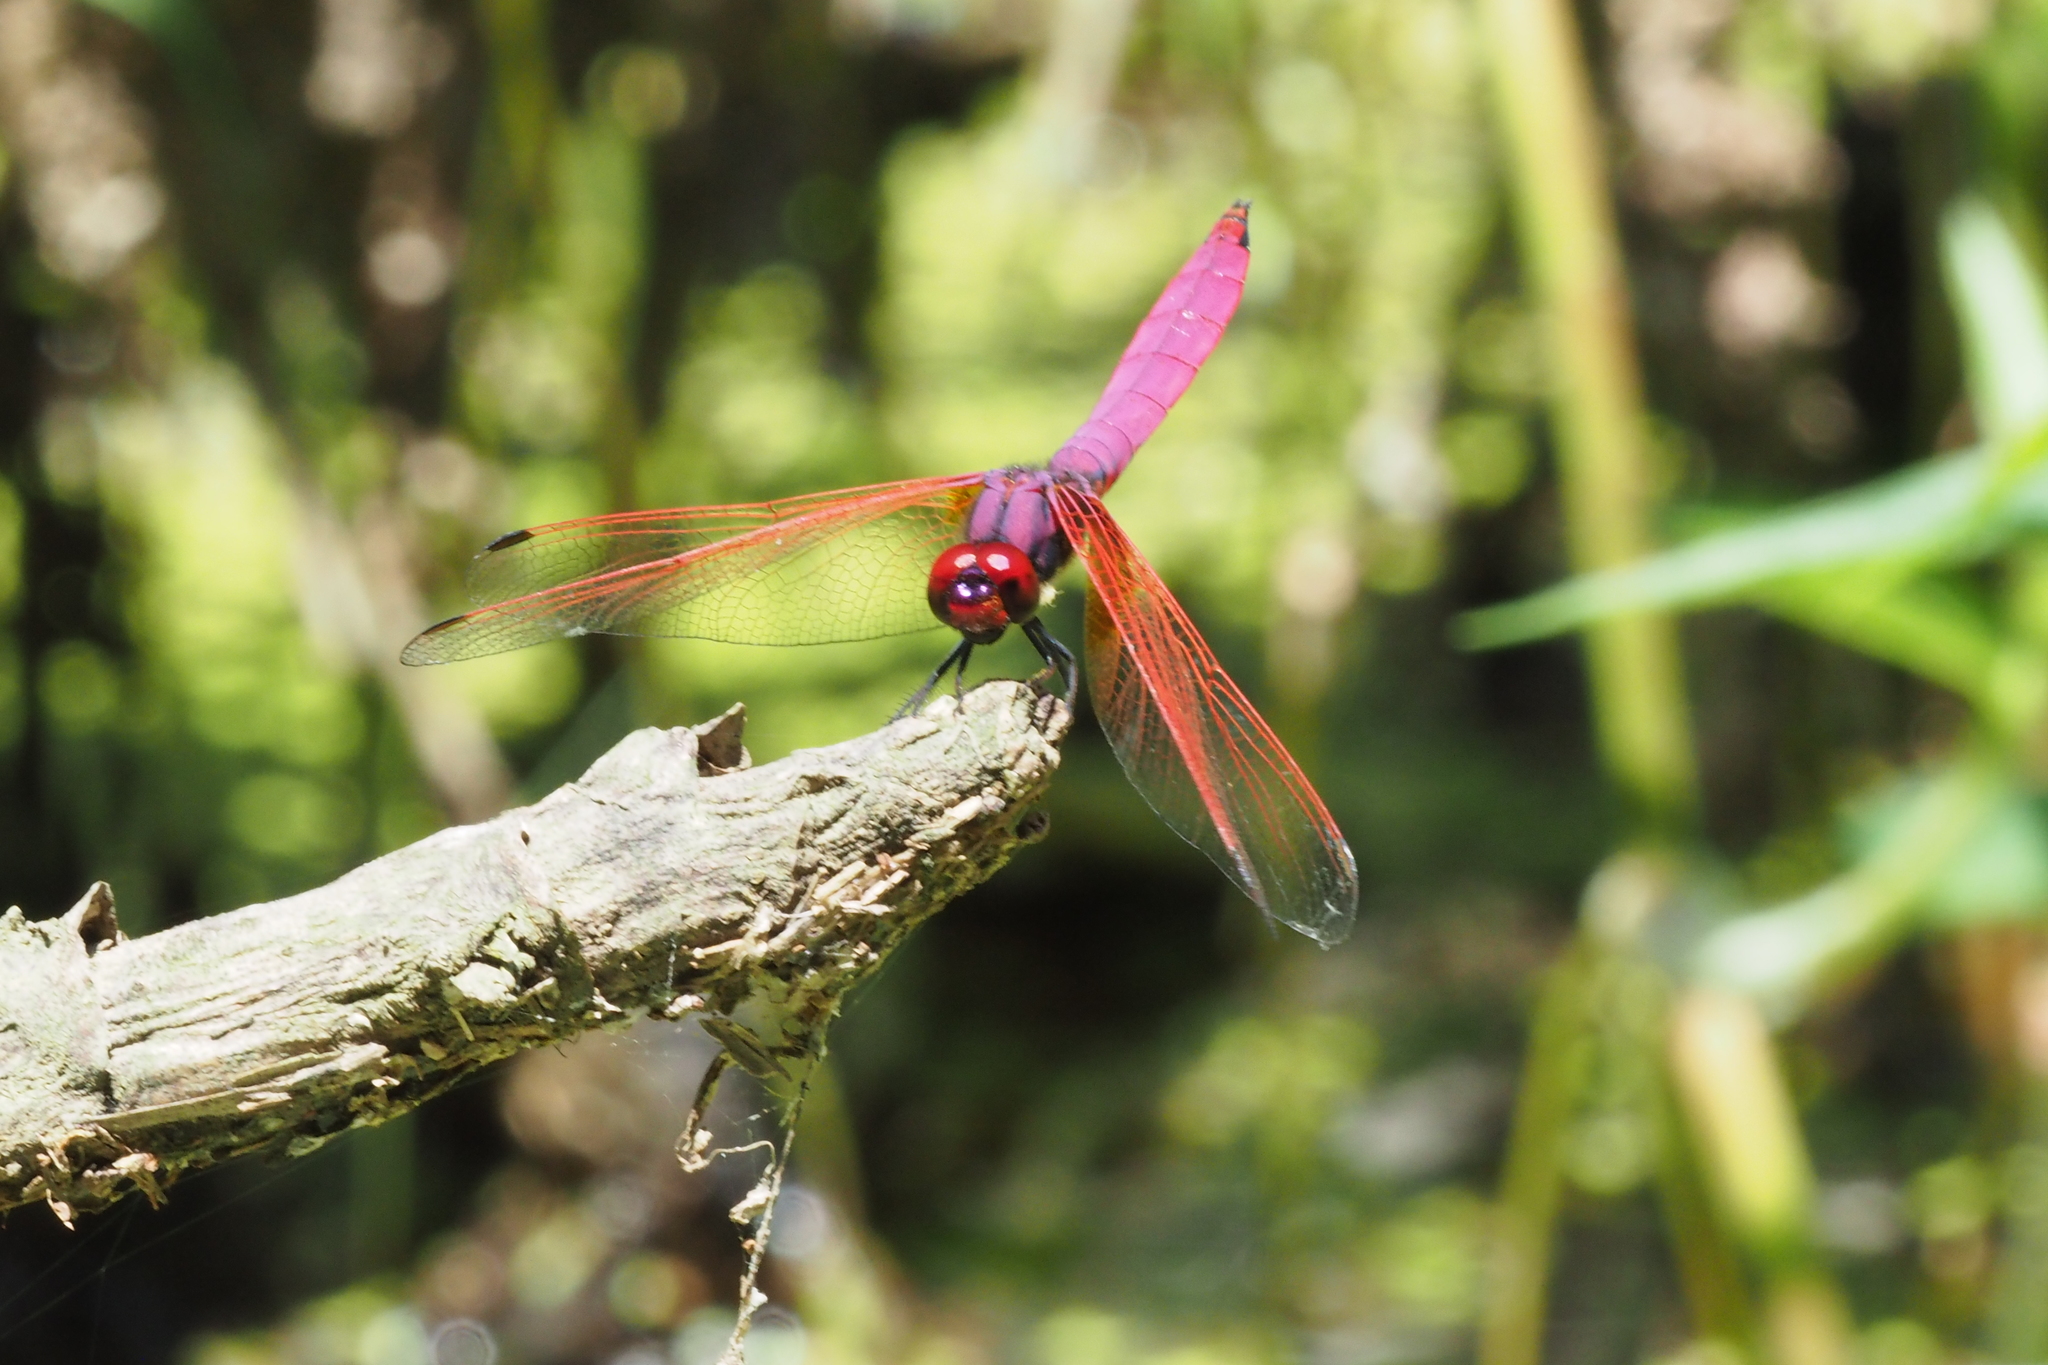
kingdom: Animalia
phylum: Arthropoda
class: Insecta
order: Odonata
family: Libellulidae
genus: Trithemis
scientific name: Trithemis aurora
